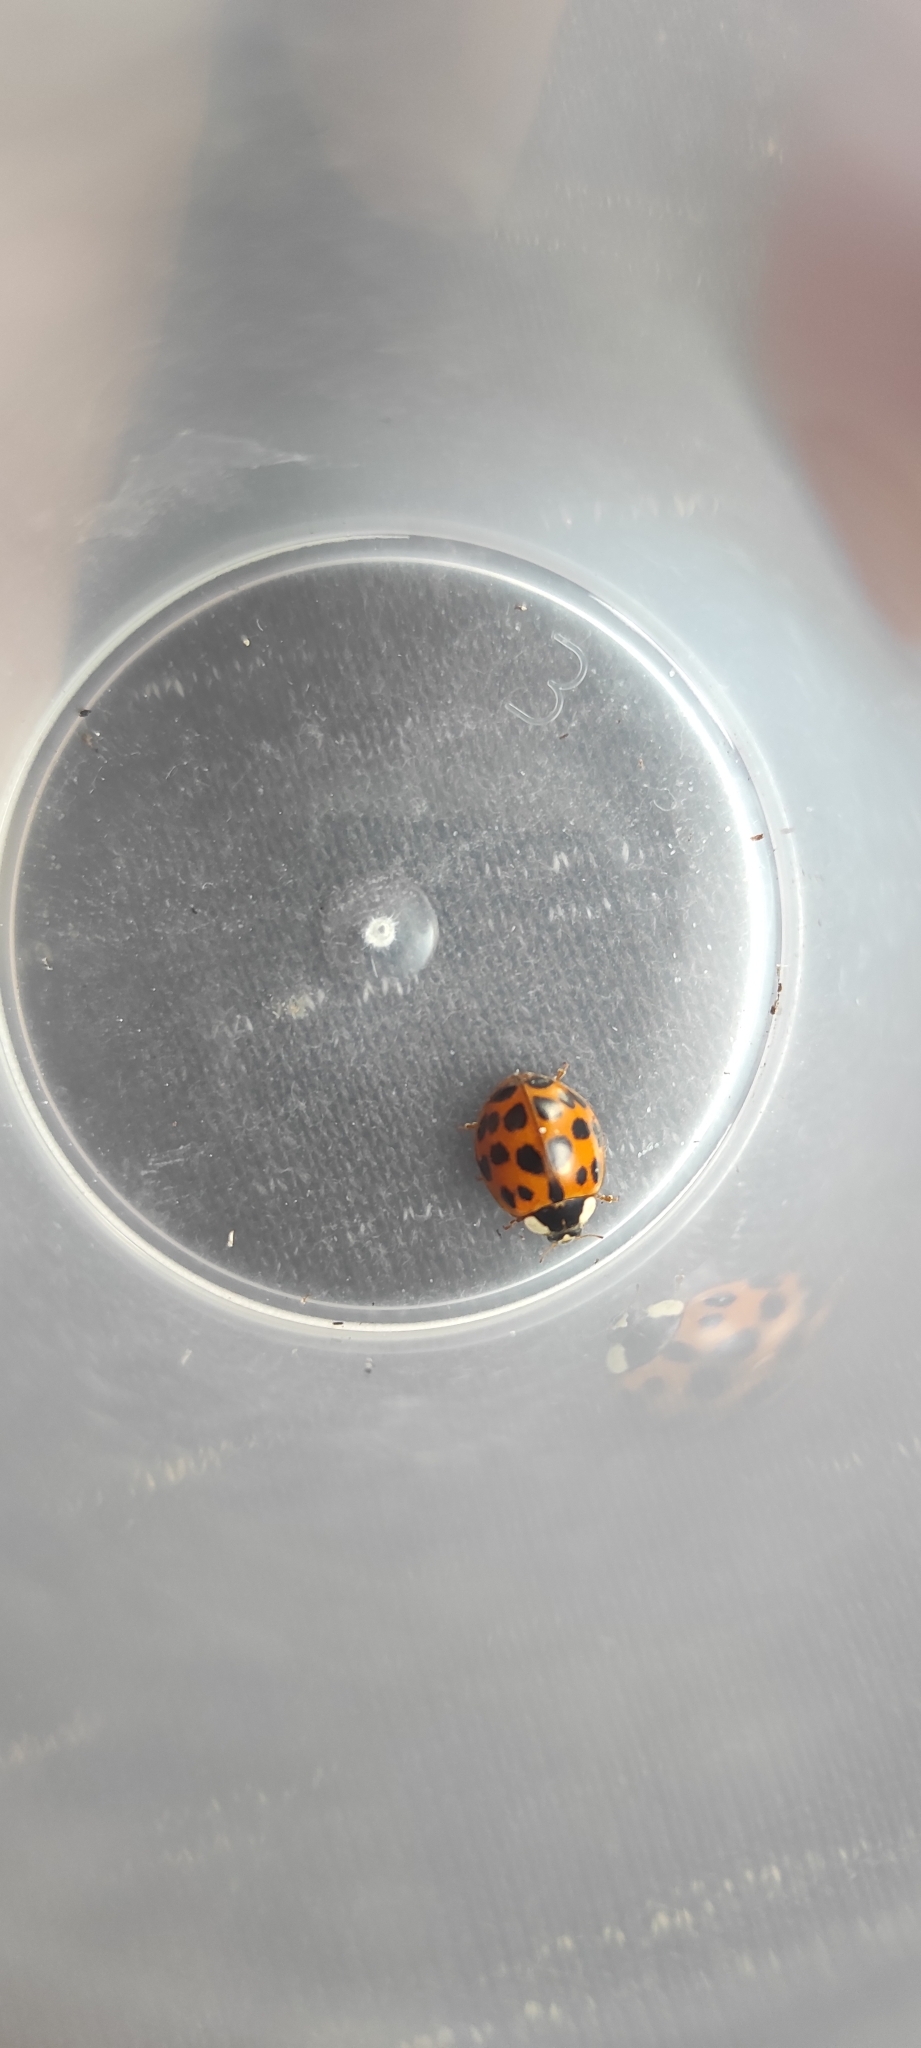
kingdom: Animalia
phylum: Arthropoda
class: Insecta
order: Coleoptera
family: Coccinellidae
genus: Harmonia
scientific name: Harmonia axyridis
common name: Harlequin ladybird
